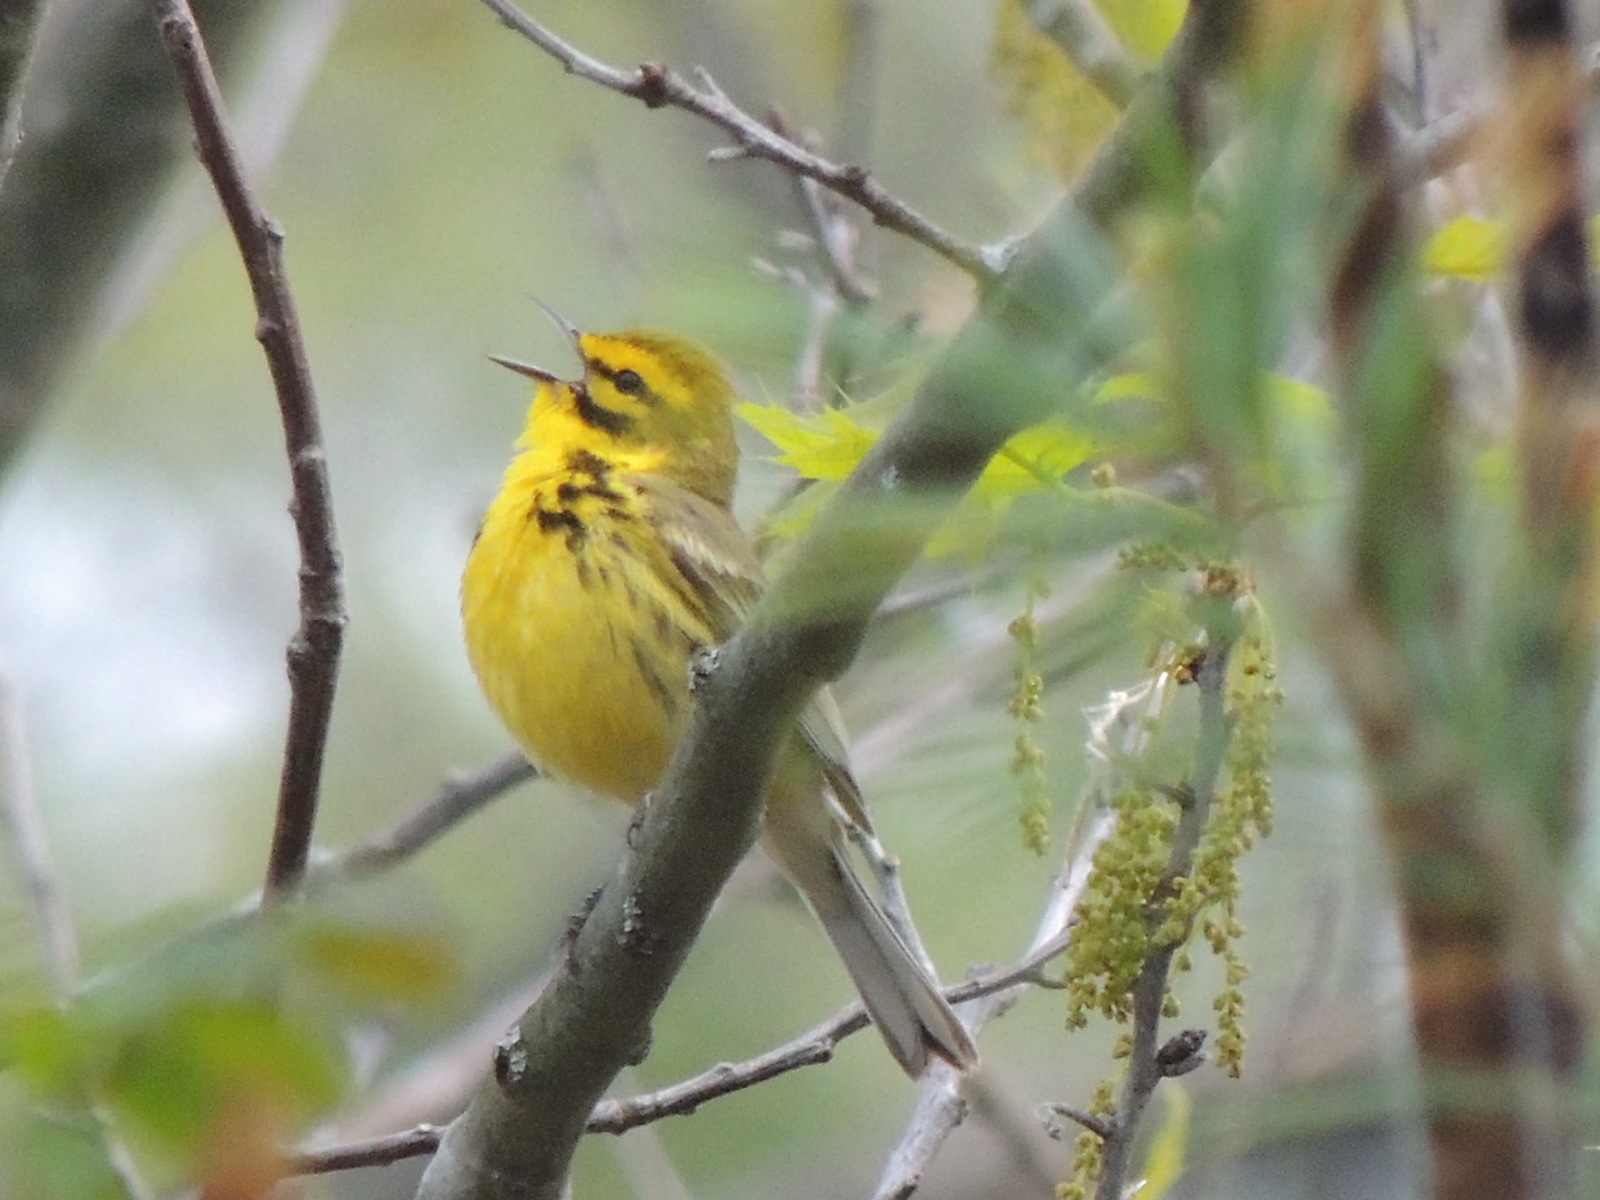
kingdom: Animalia
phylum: Chordata
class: Aves
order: Passeriformes
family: Parulidae
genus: Setophaga
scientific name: Setophaga discolor
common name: Prairie warbler
